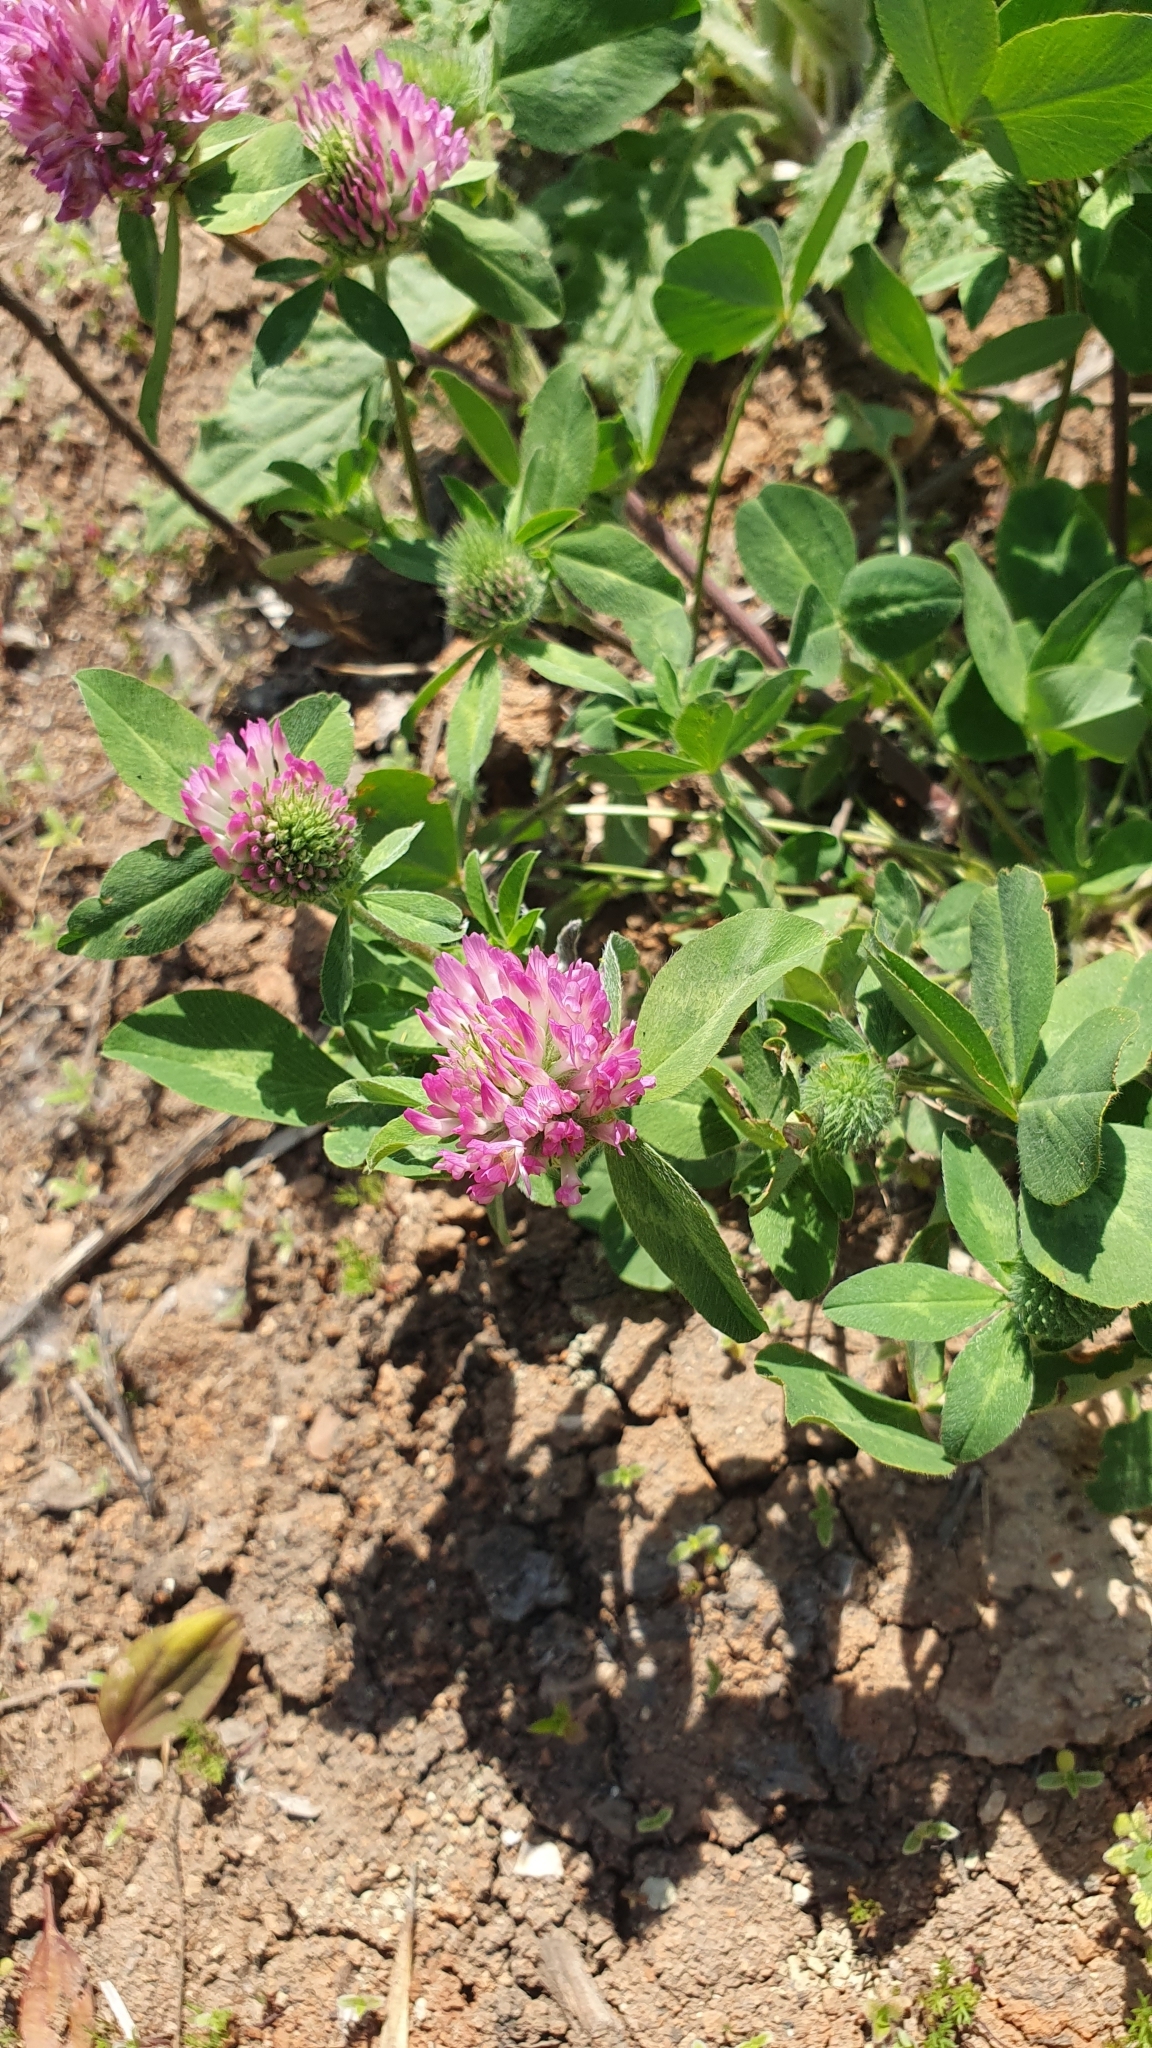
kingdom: Plantae
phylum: Tracheophyta
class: Magnoliopsida
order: Fabales
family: Fabaceae
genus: Trifolium
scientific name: Trifolium pratense
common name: Red clover
